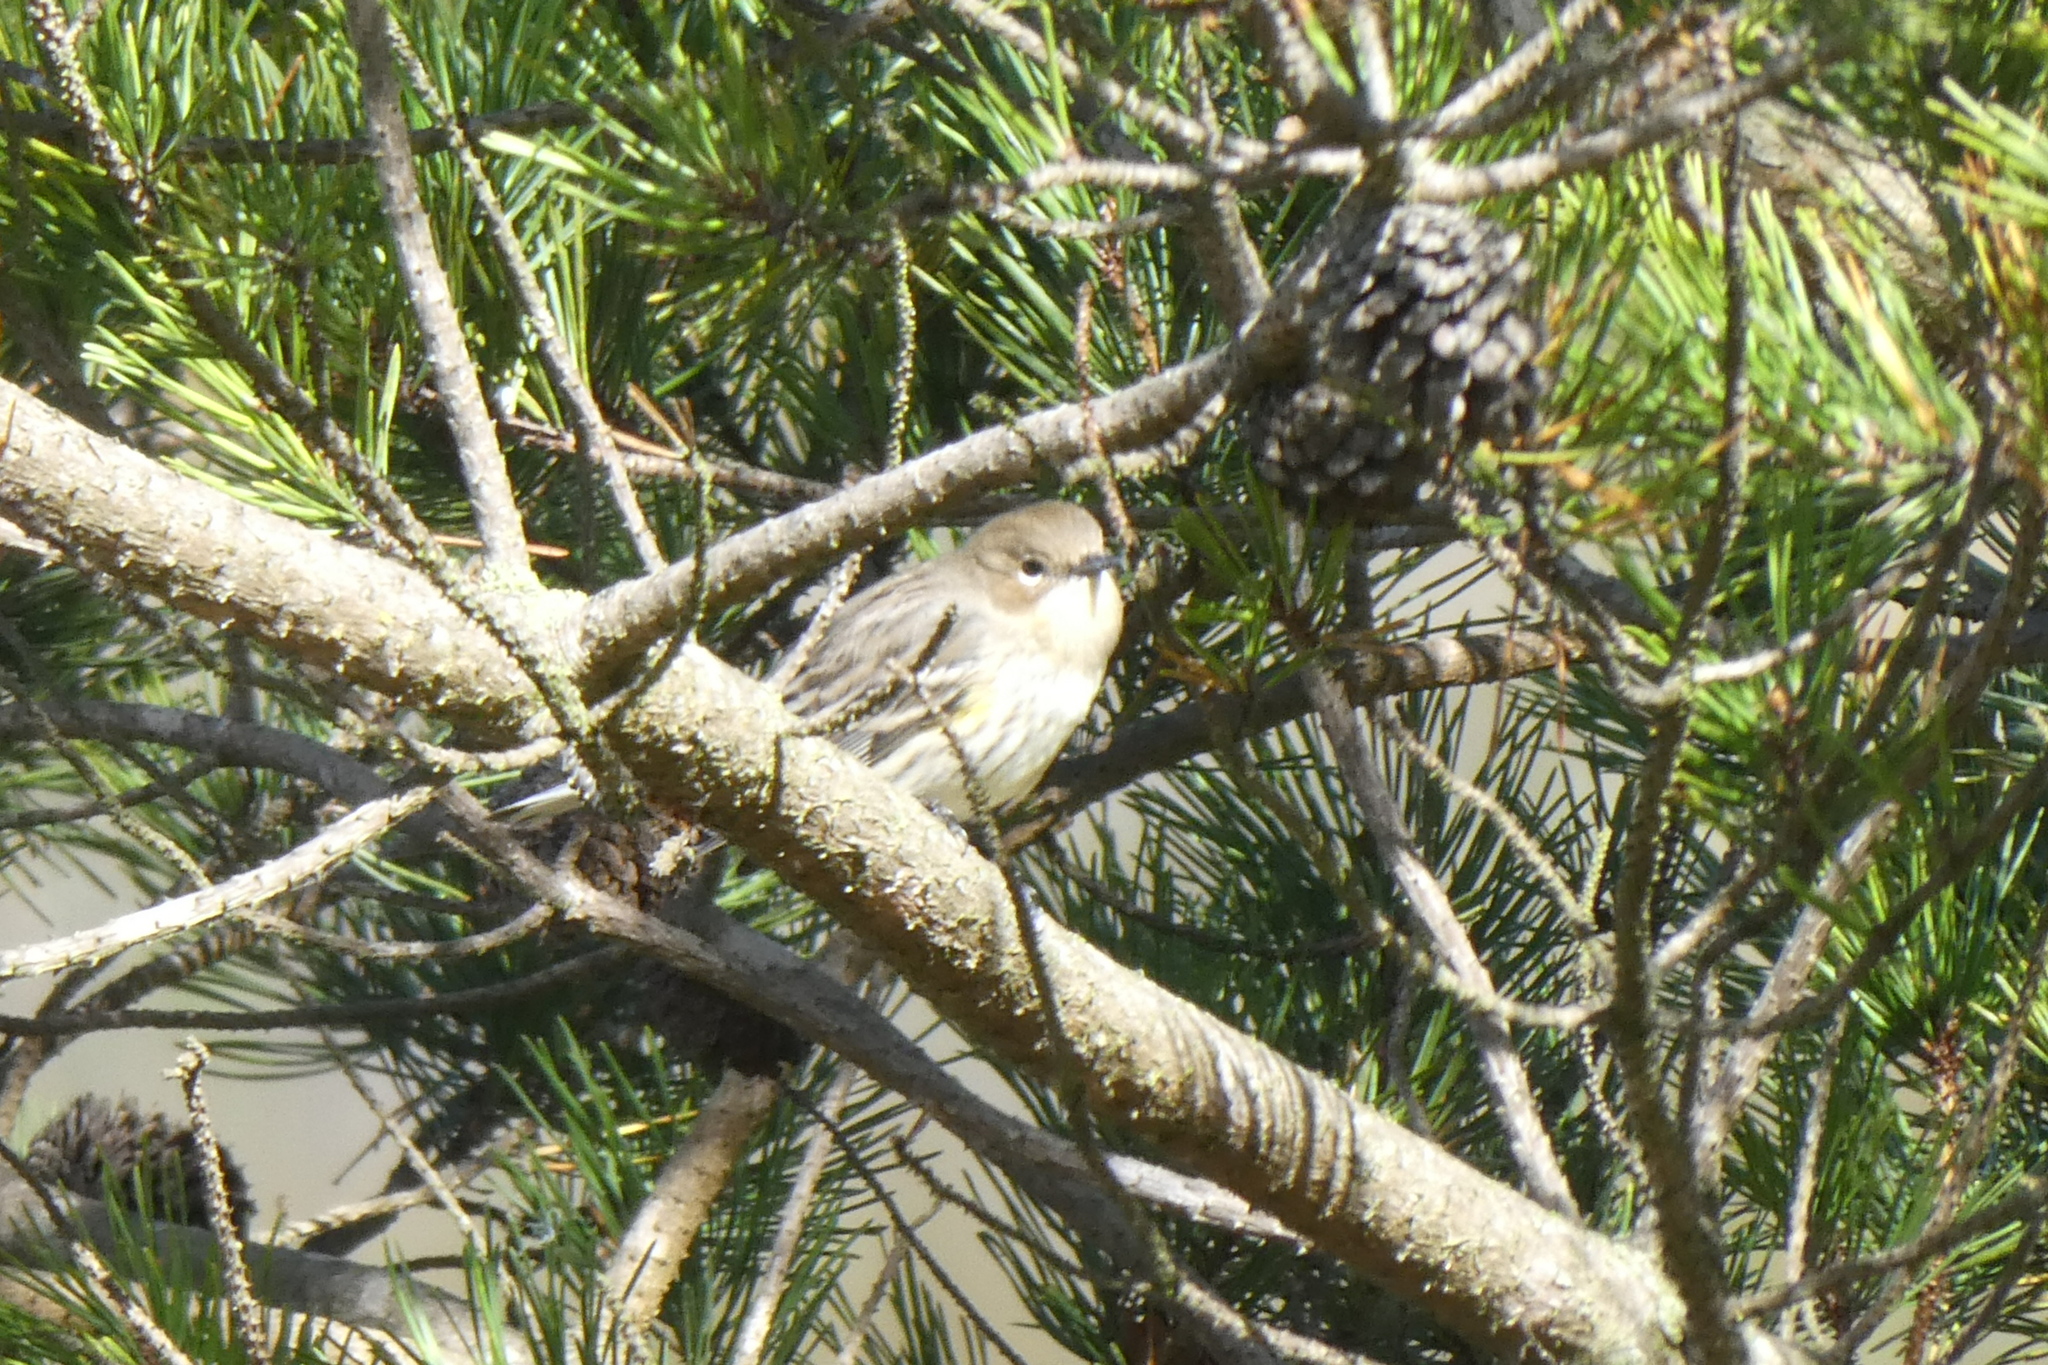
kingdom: Animalia
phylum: Chordata
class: Aves
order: Passeriformes
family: Parulidae
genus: Setophaga
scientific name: Setophaga coronata
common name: Myrtle warbler
